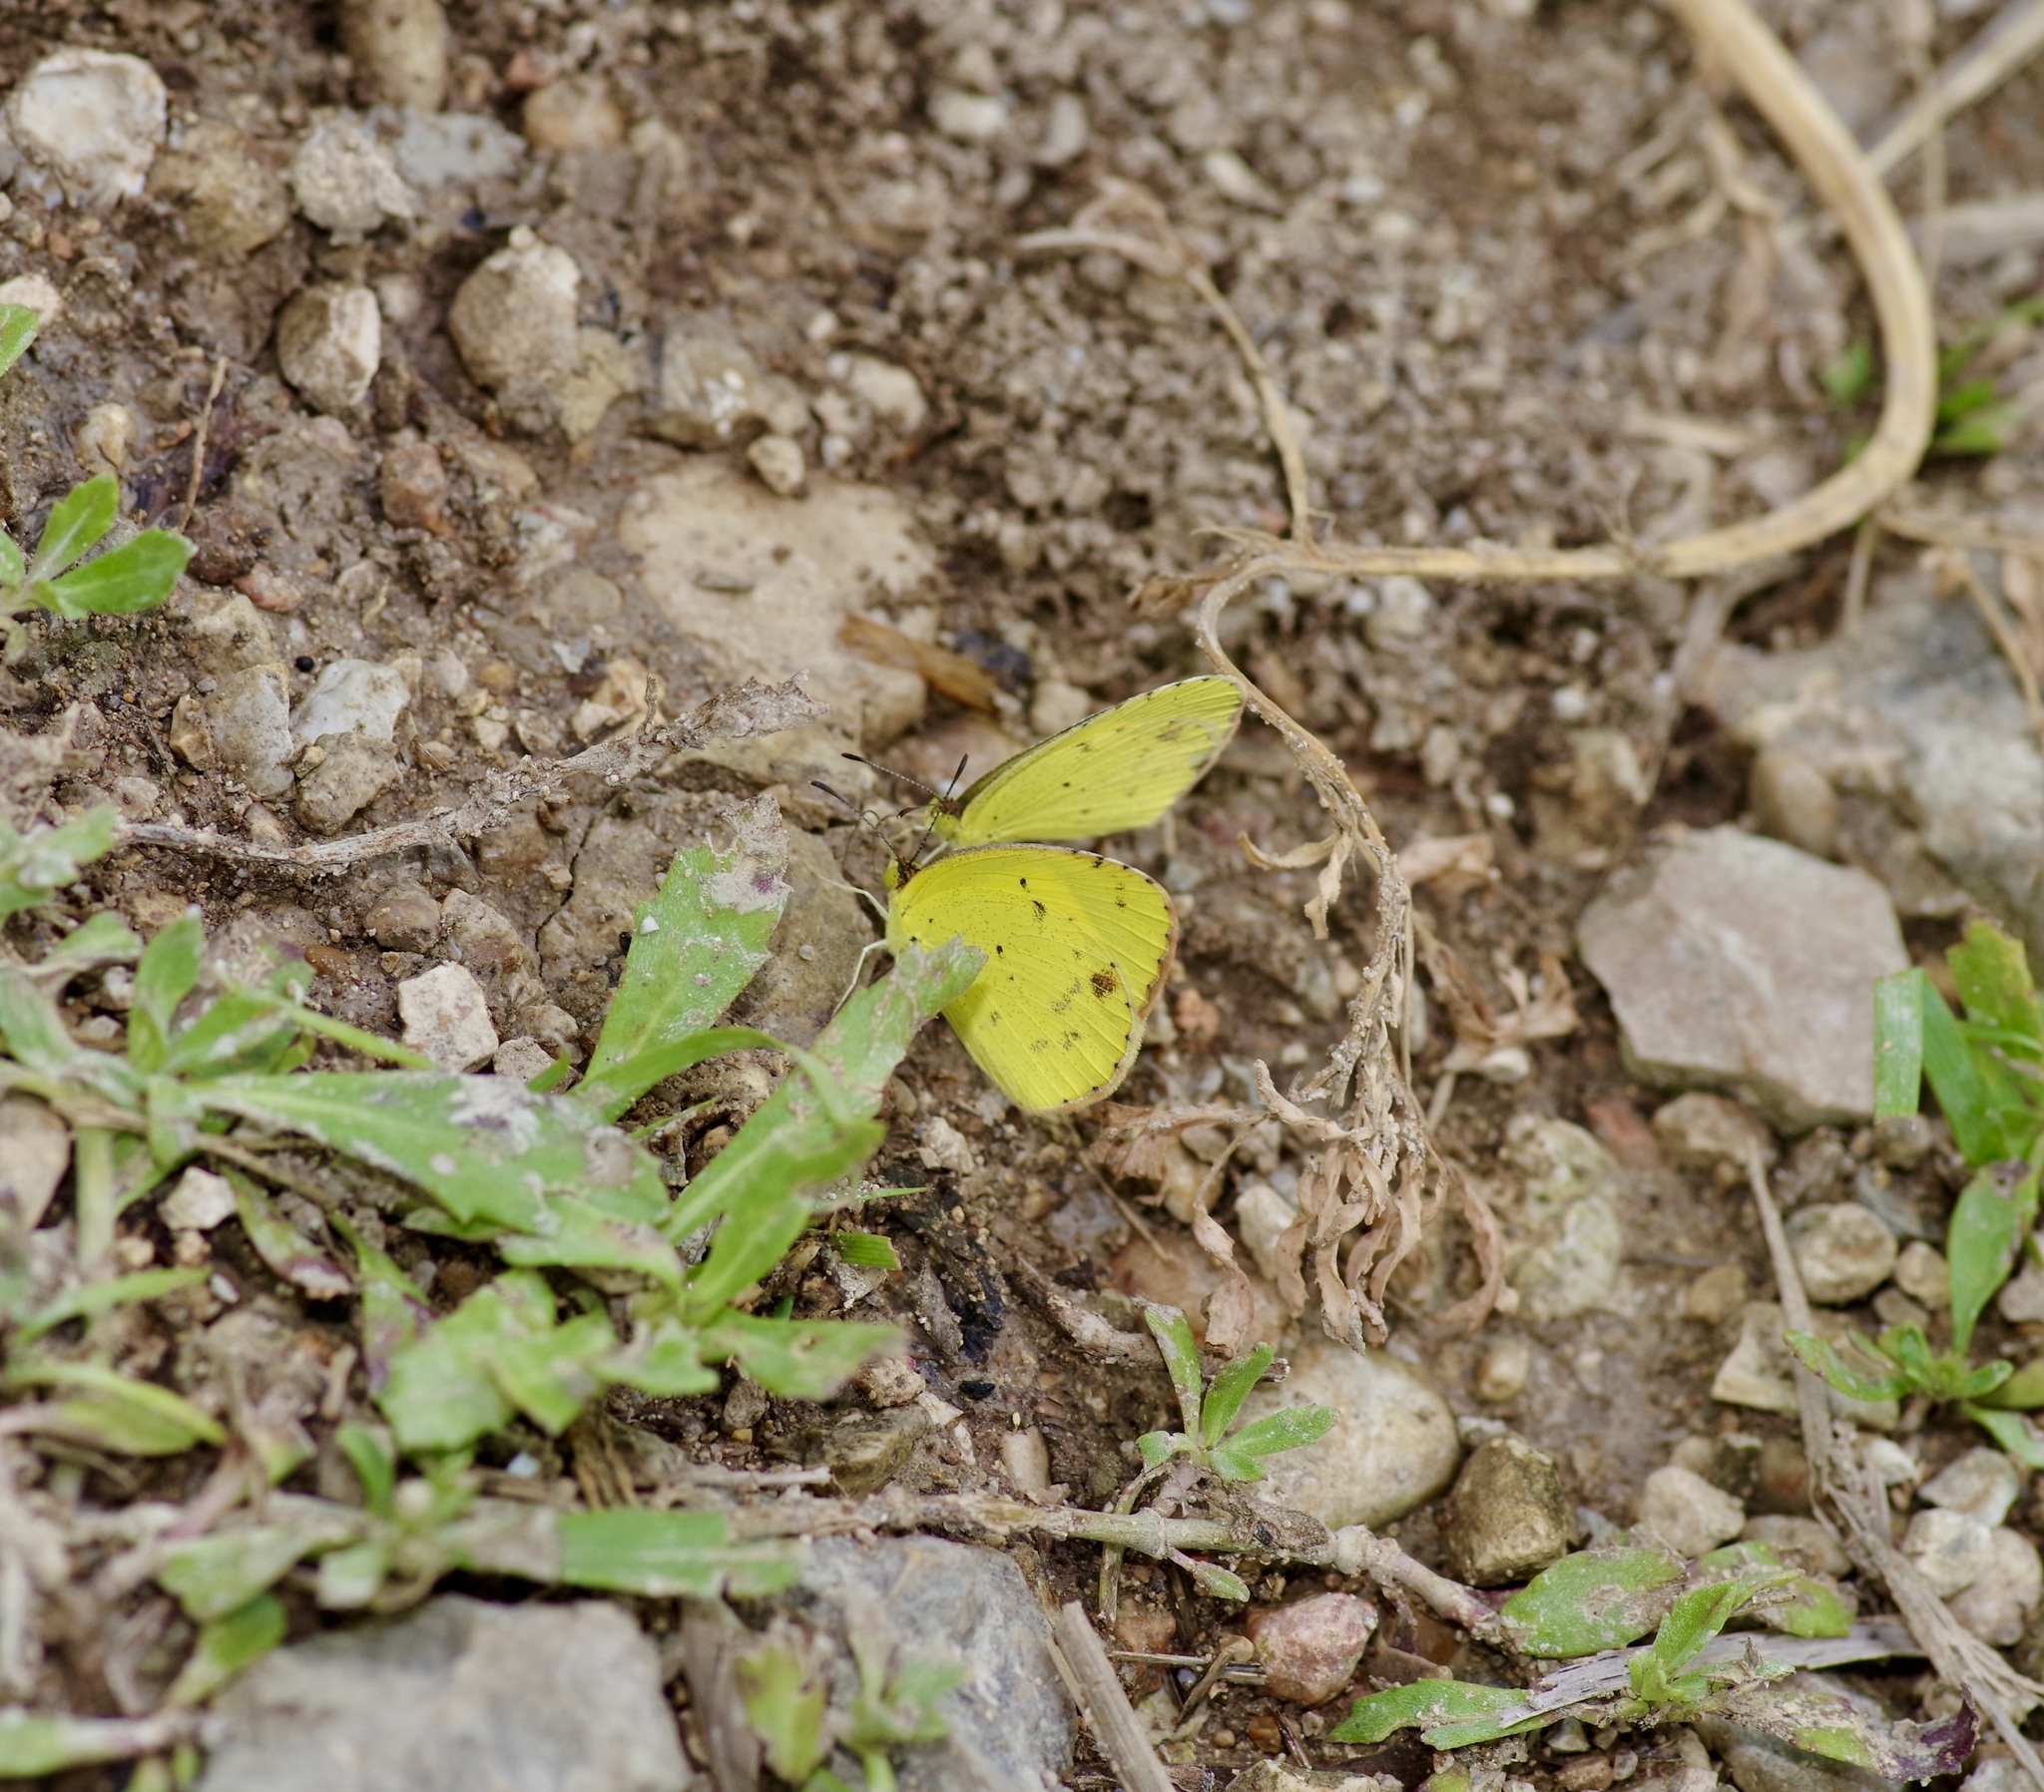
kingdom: Animalia
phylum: Arthropoda
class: Insecta
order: Lepidoptera
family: Pieridae
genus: Pyrisitia
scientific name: Pyrisitia lisa
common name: Little yellow
